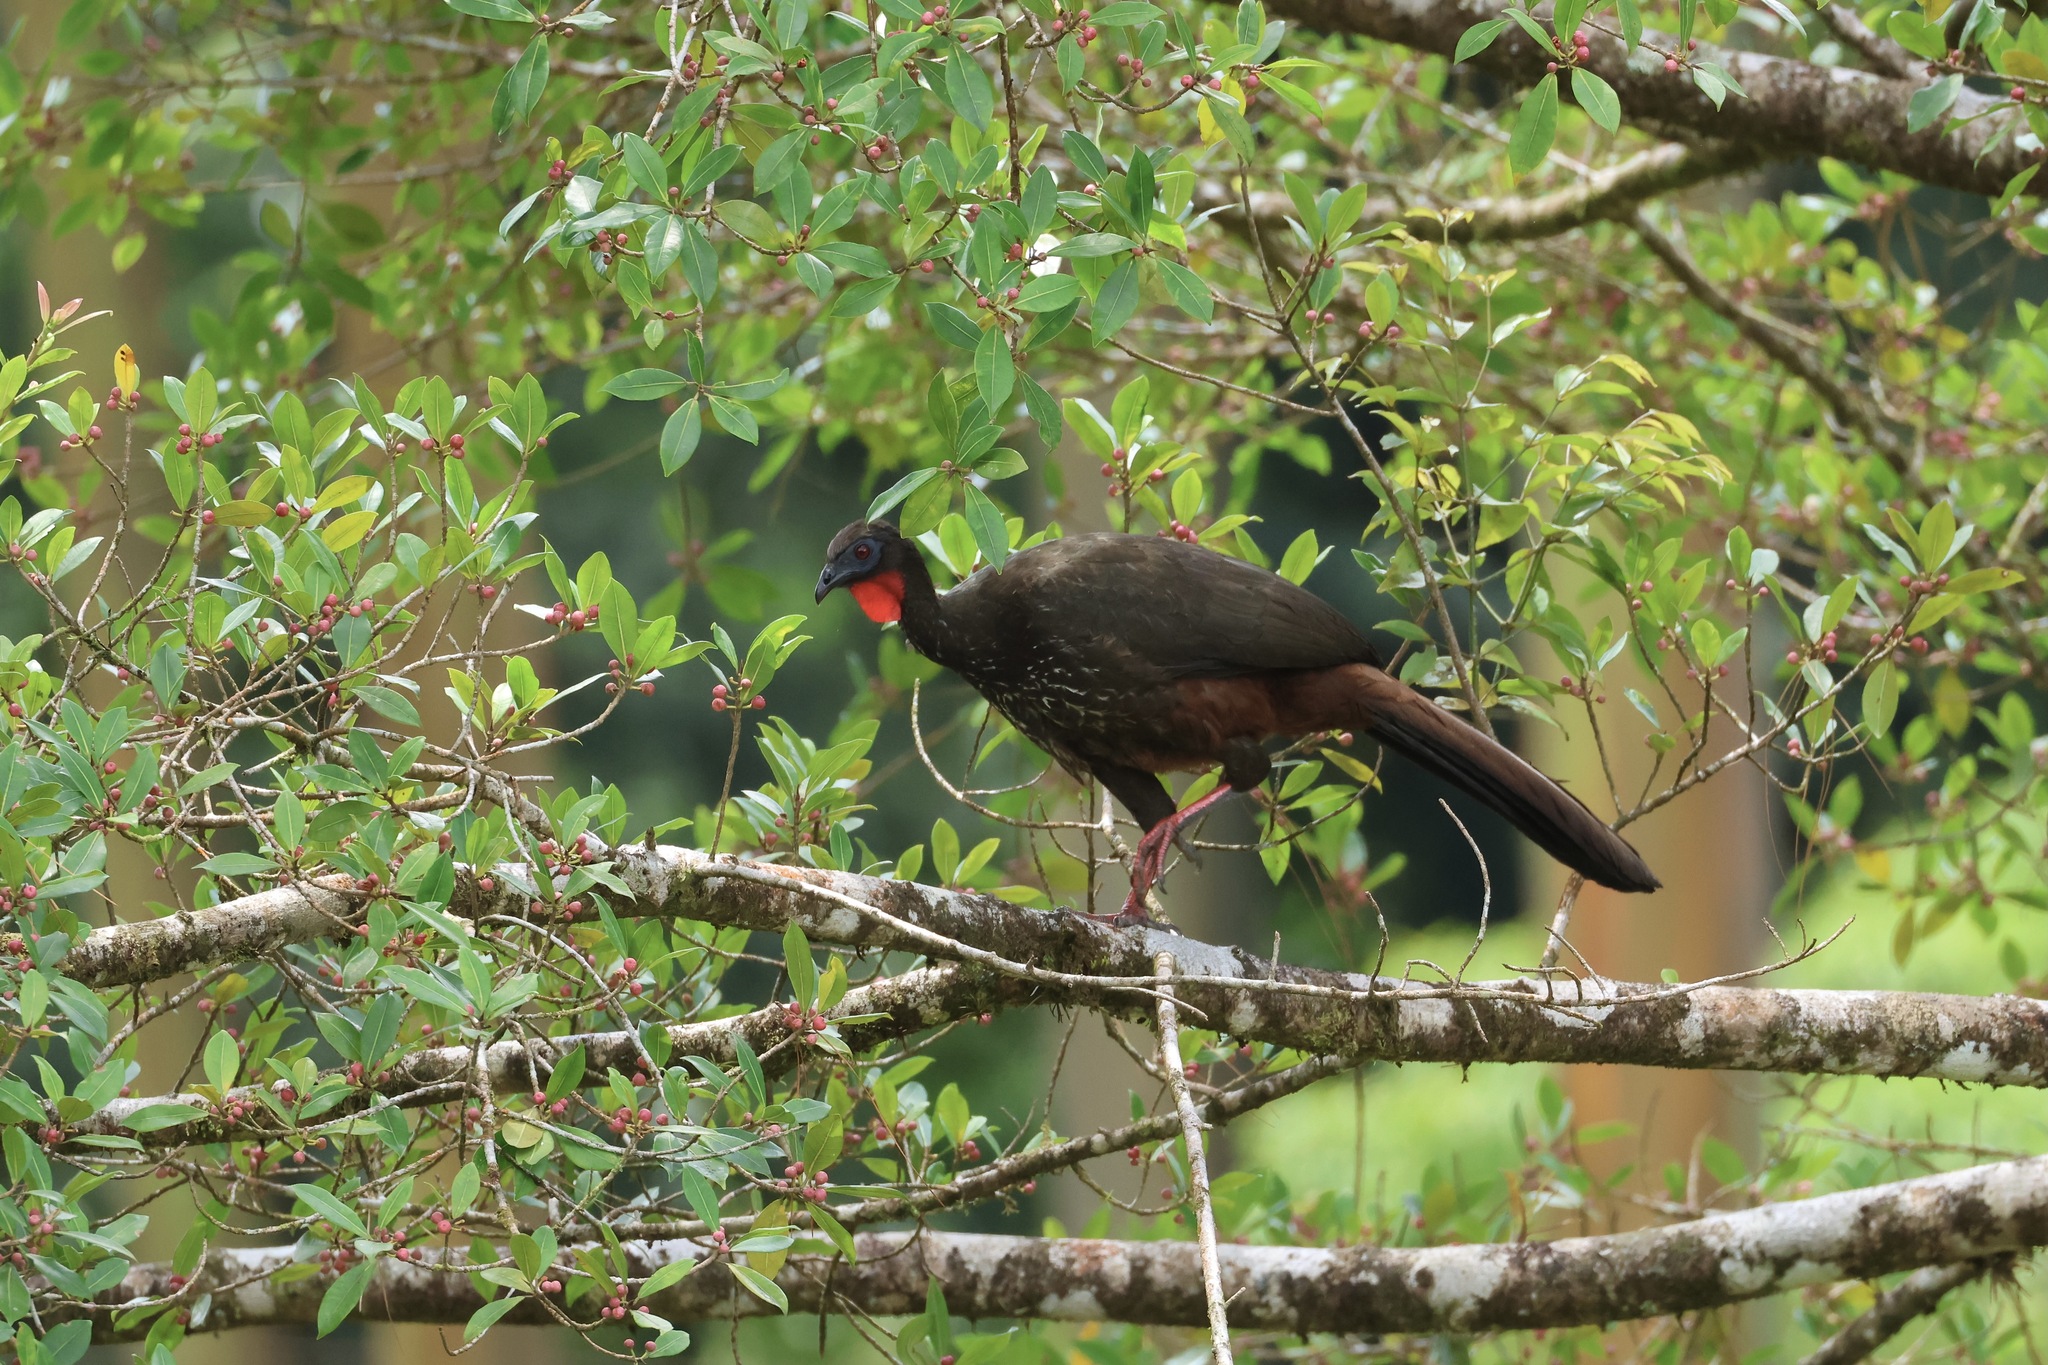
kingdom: Animalia
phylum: Chordata
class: Aves
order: Galliformes
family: Cracidae
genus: Penelope
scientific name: Penelope purpurascens
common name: Crested guan
